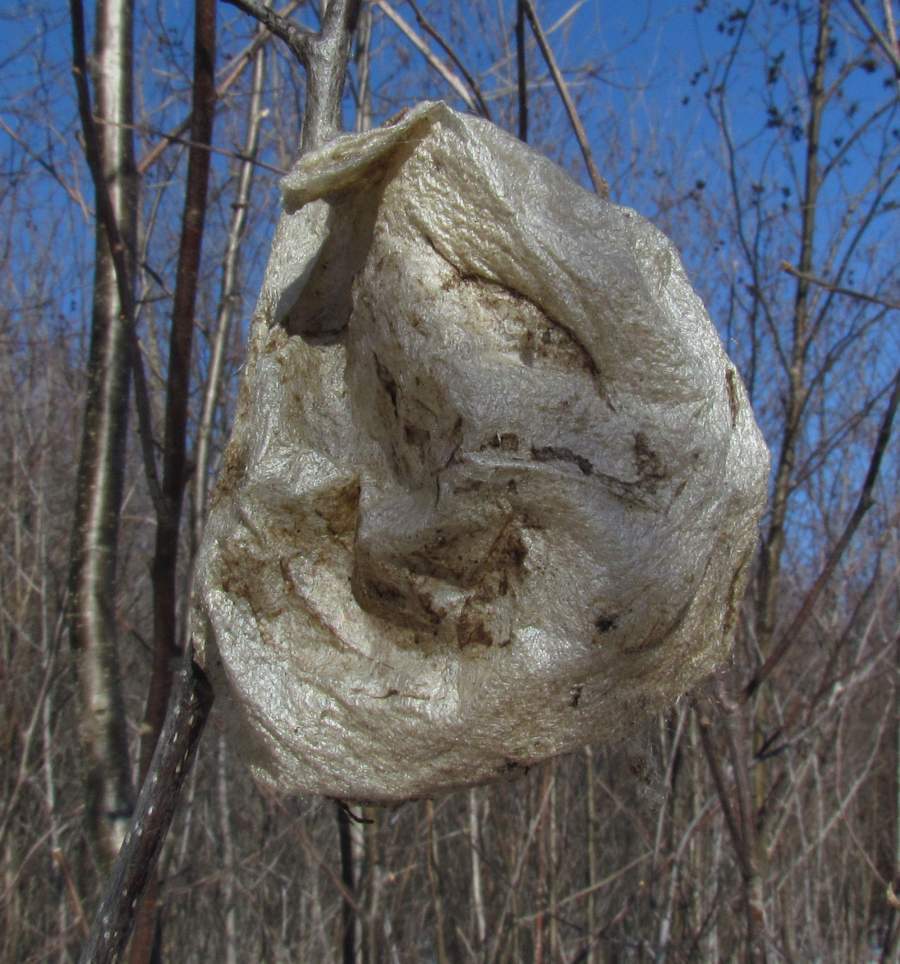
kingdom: Animalia
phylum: Arthropoda
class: Insecta
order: Lepidoptera
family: Saturniidae
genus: Hyalophora
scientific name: Hyalophora cecropia
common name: Cecropia silkmoth
